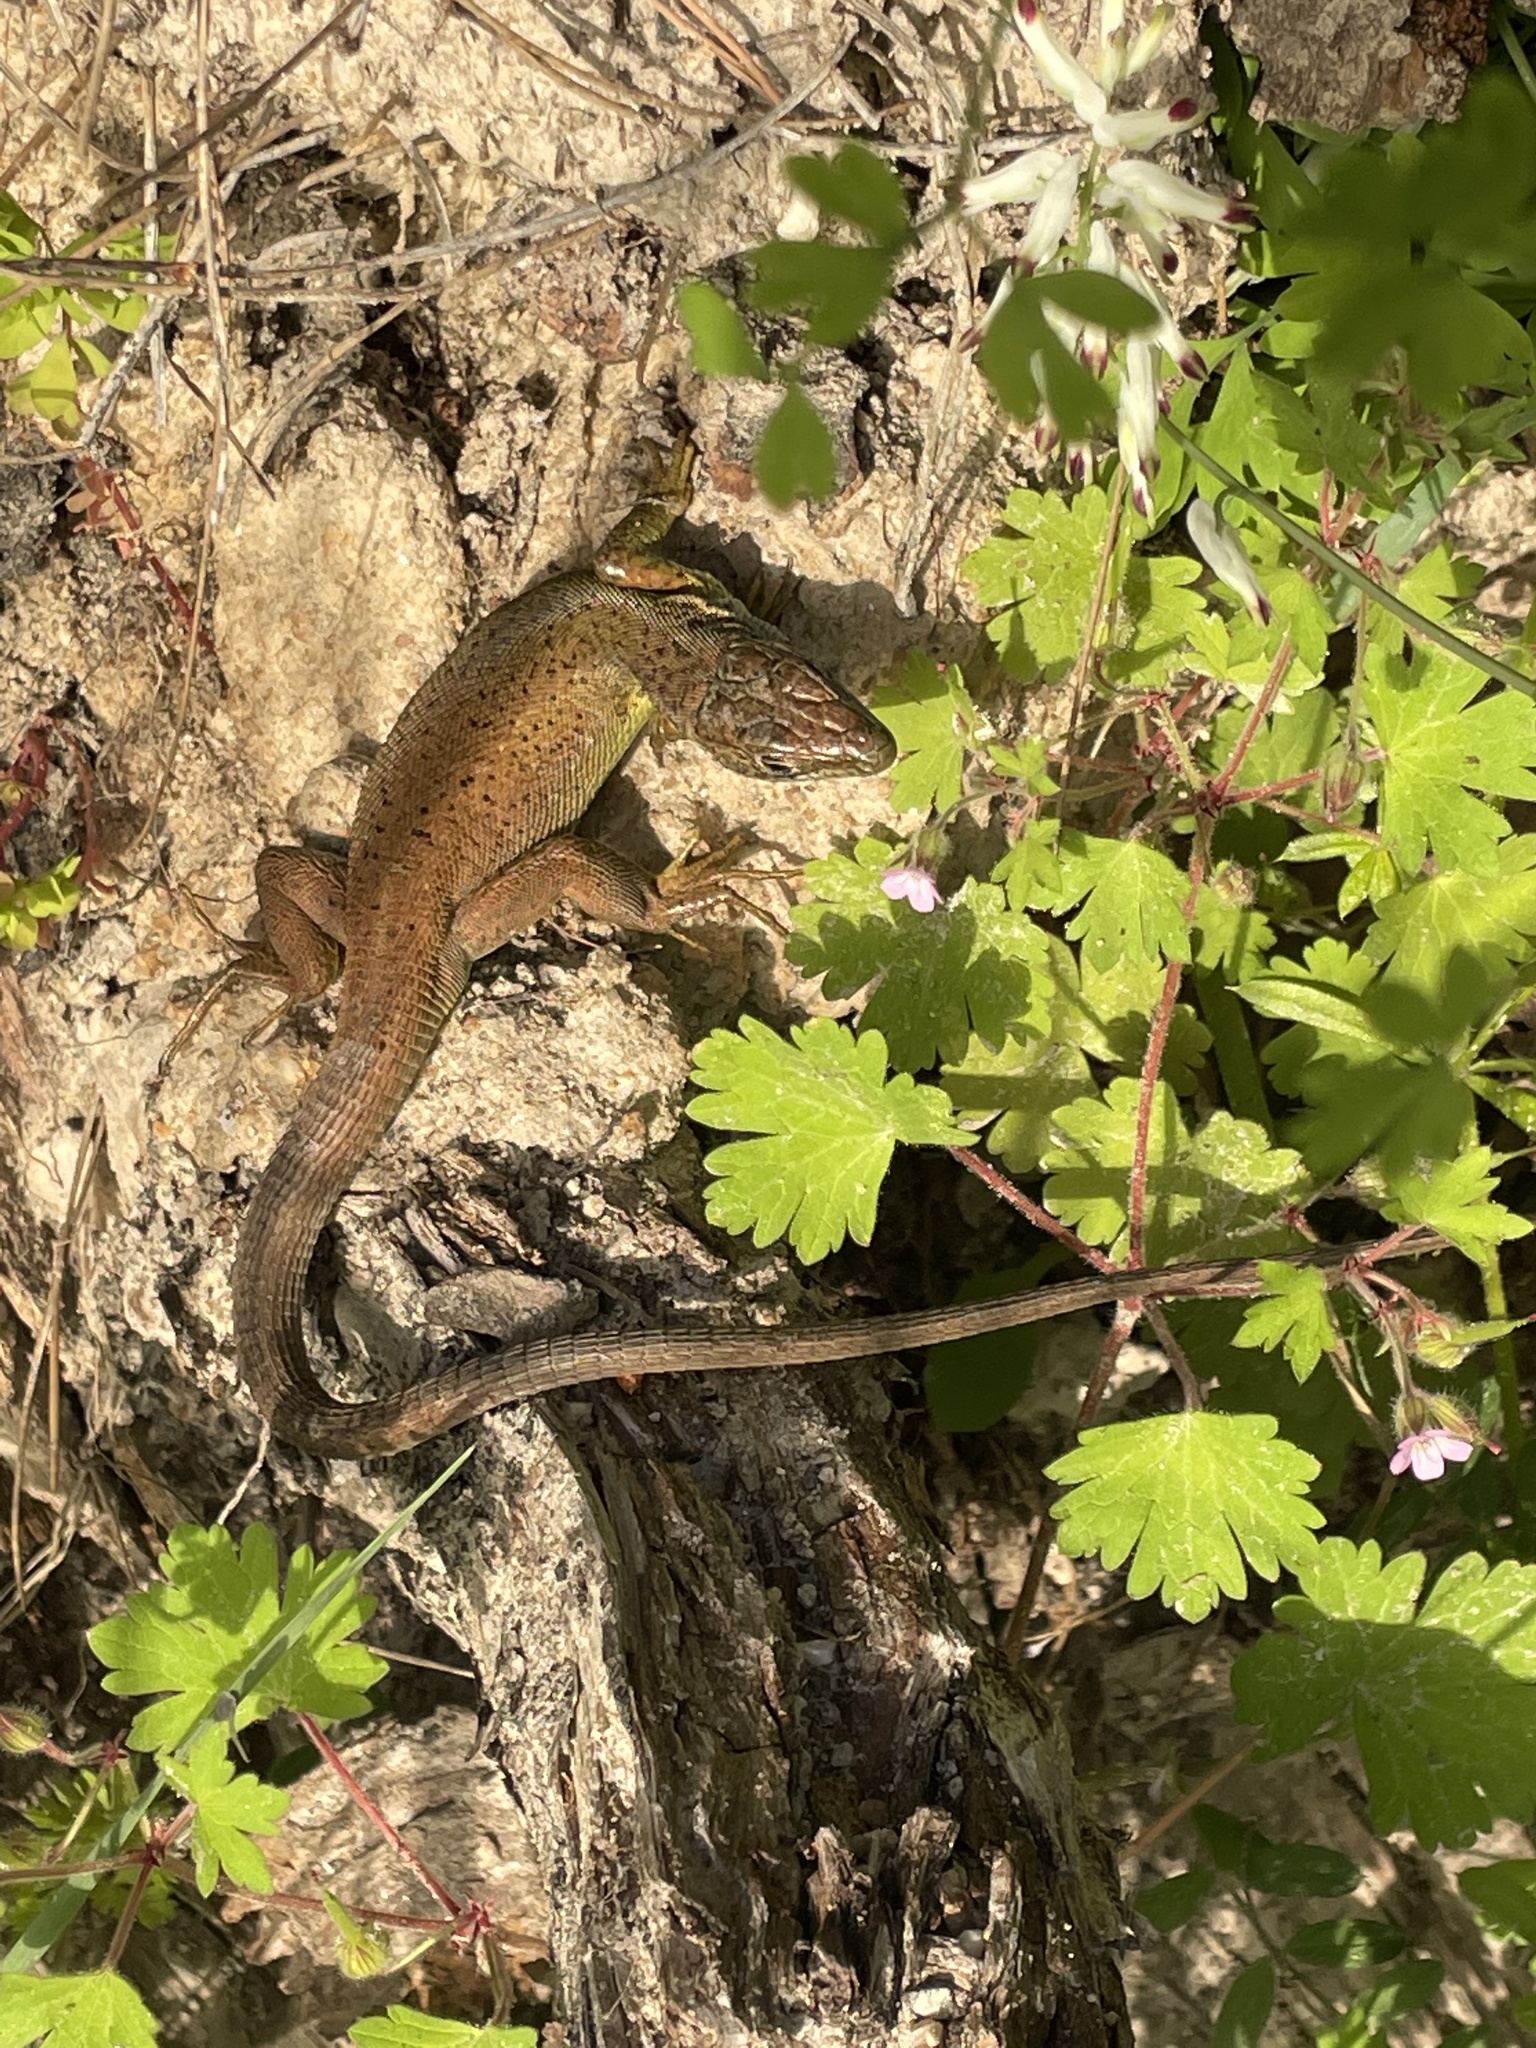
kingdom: Animalia
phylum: Chordata
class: Squamata
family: Lacertidae
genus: Lacerta
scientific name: Lacerta viridis
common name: European green lizard
